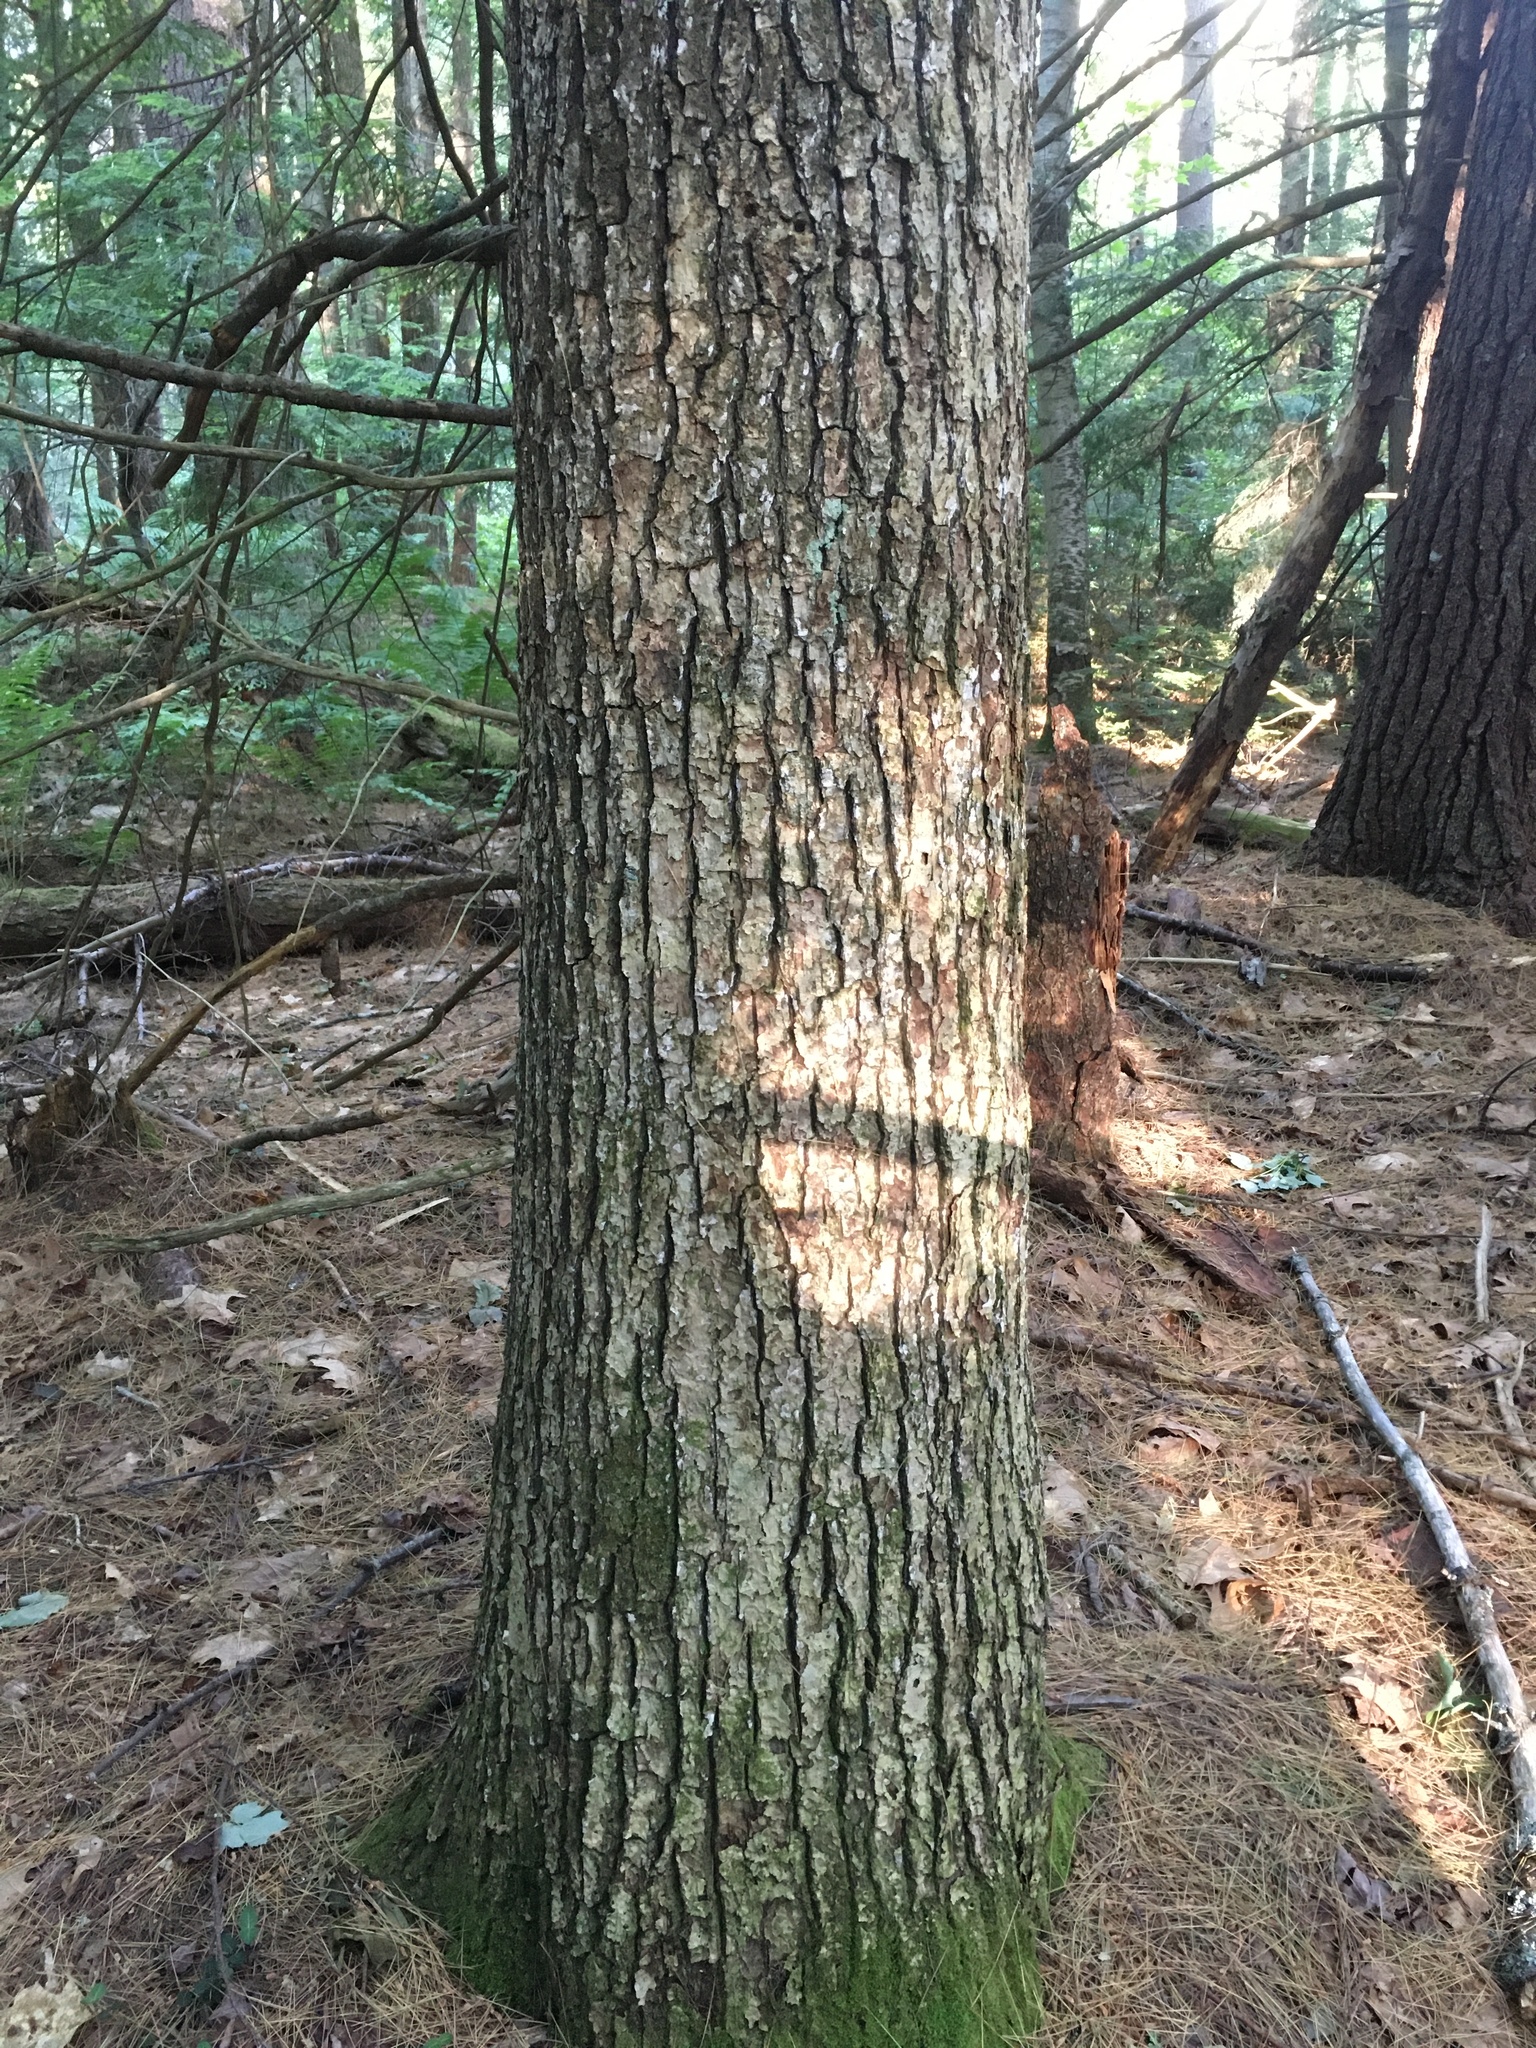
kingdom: Plantae
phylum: Tracheophyta
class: Magnoliopsida
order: Fagales
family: Fagaceae
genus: Quercus
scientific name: Quercus alba
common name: White oak
